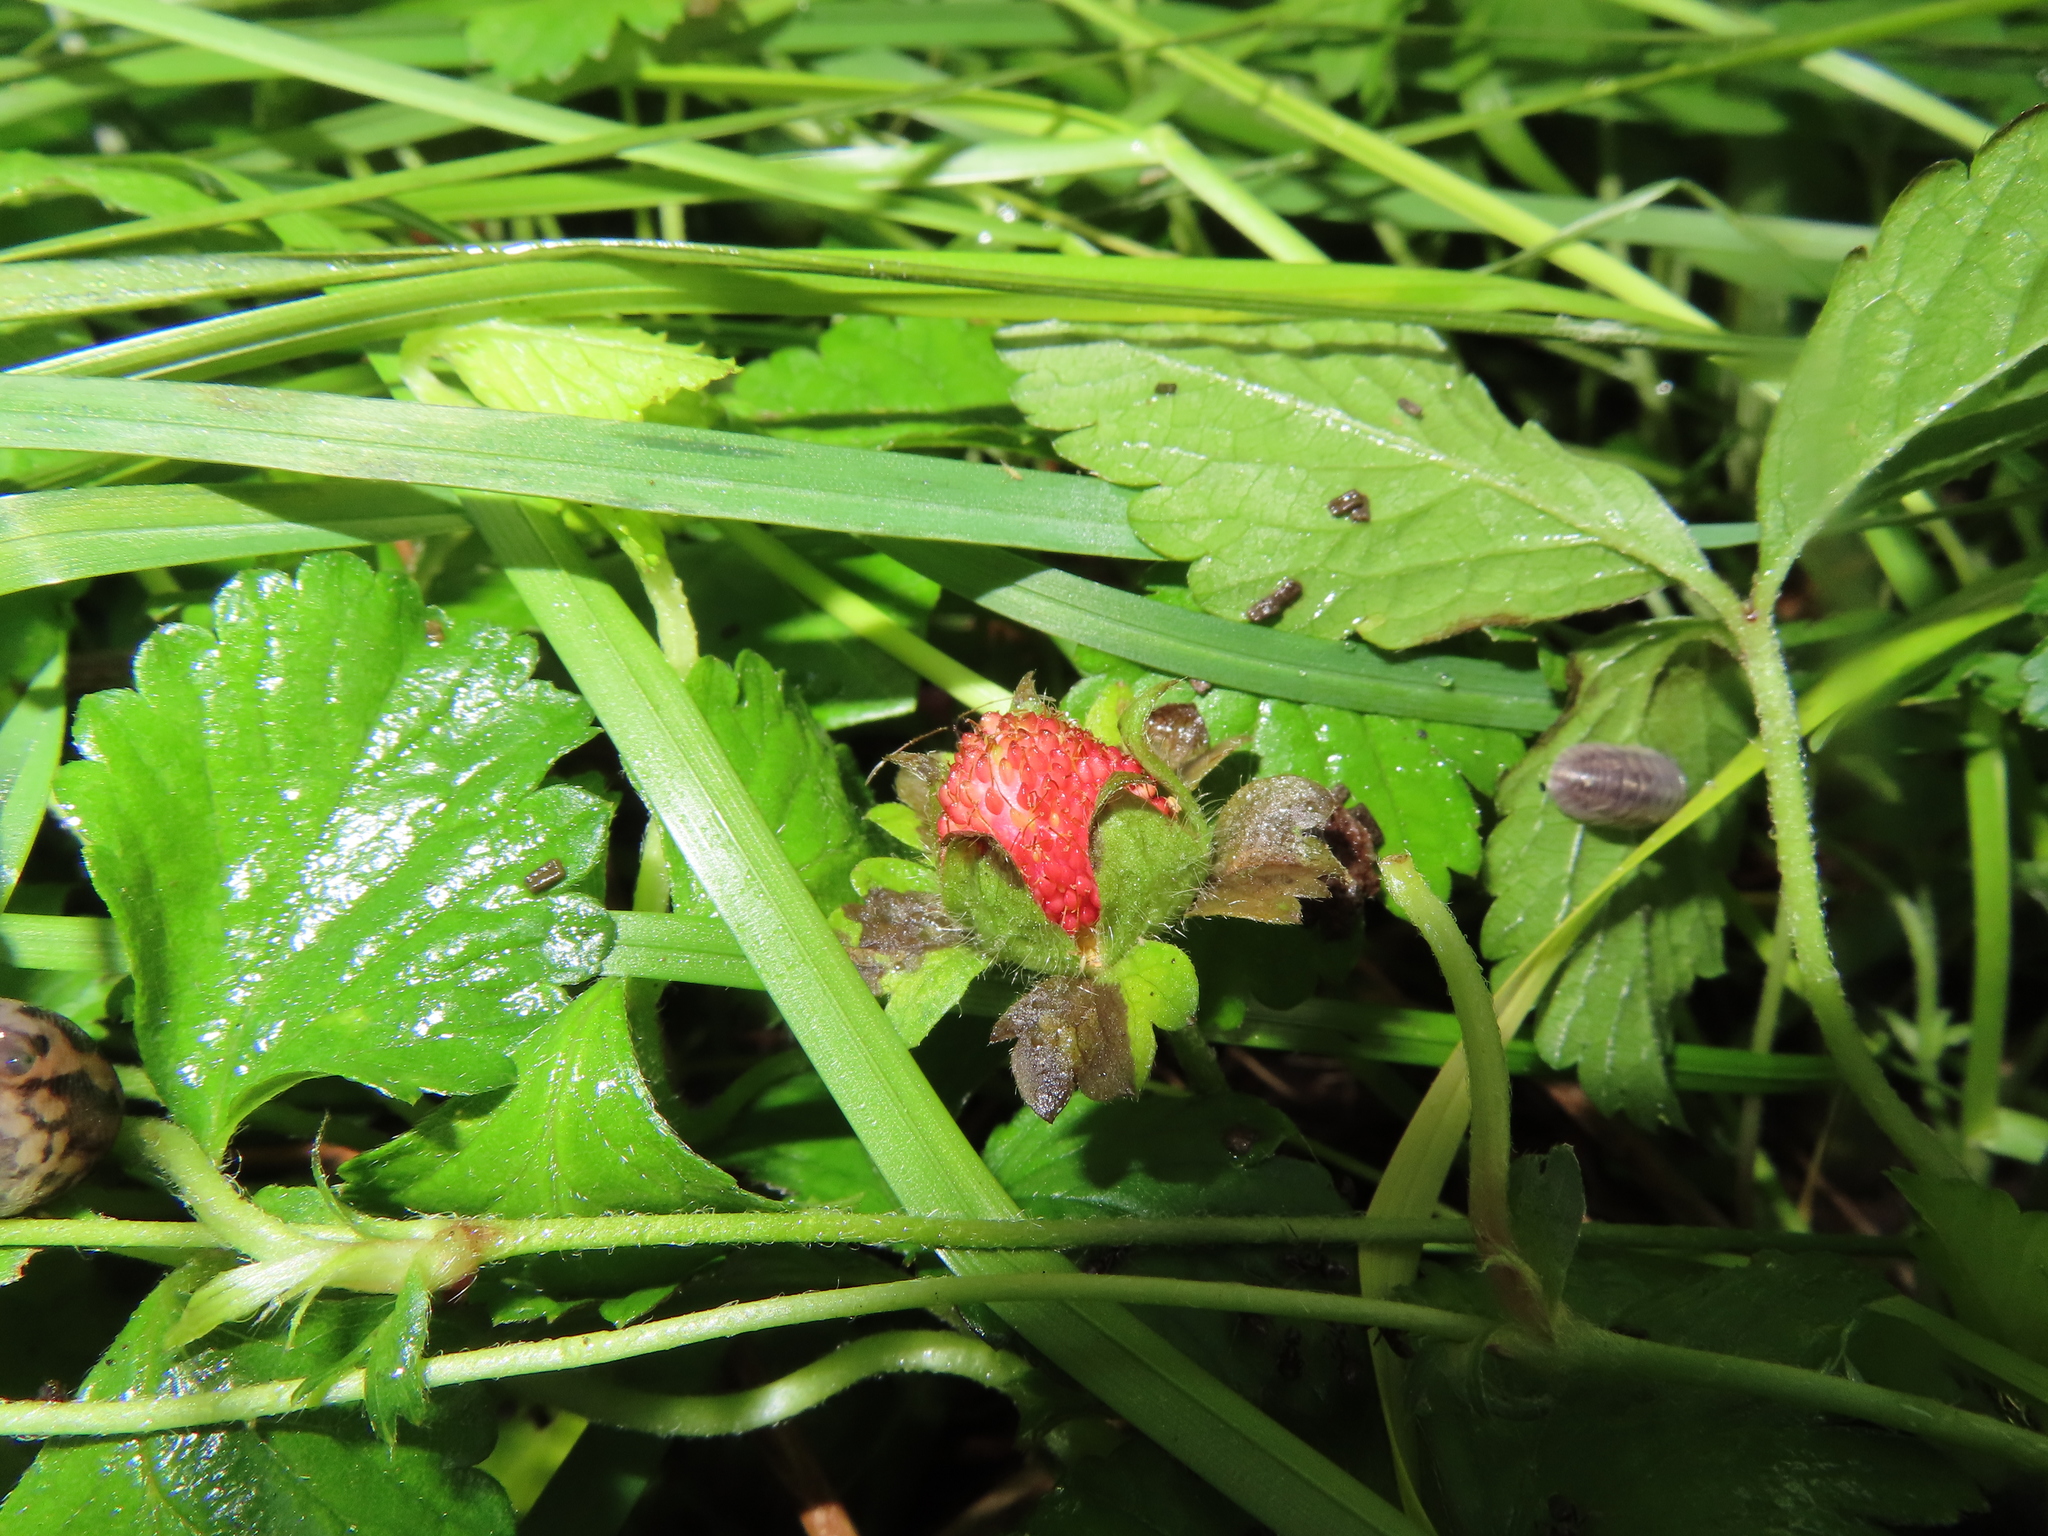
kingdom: Plantae
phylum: Tracheophyta
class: Magnoliopsida
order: Rosales
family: Rosaceae
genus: Potentilla
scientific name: Potentilla indica
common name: Yellow-flowered strawberry
